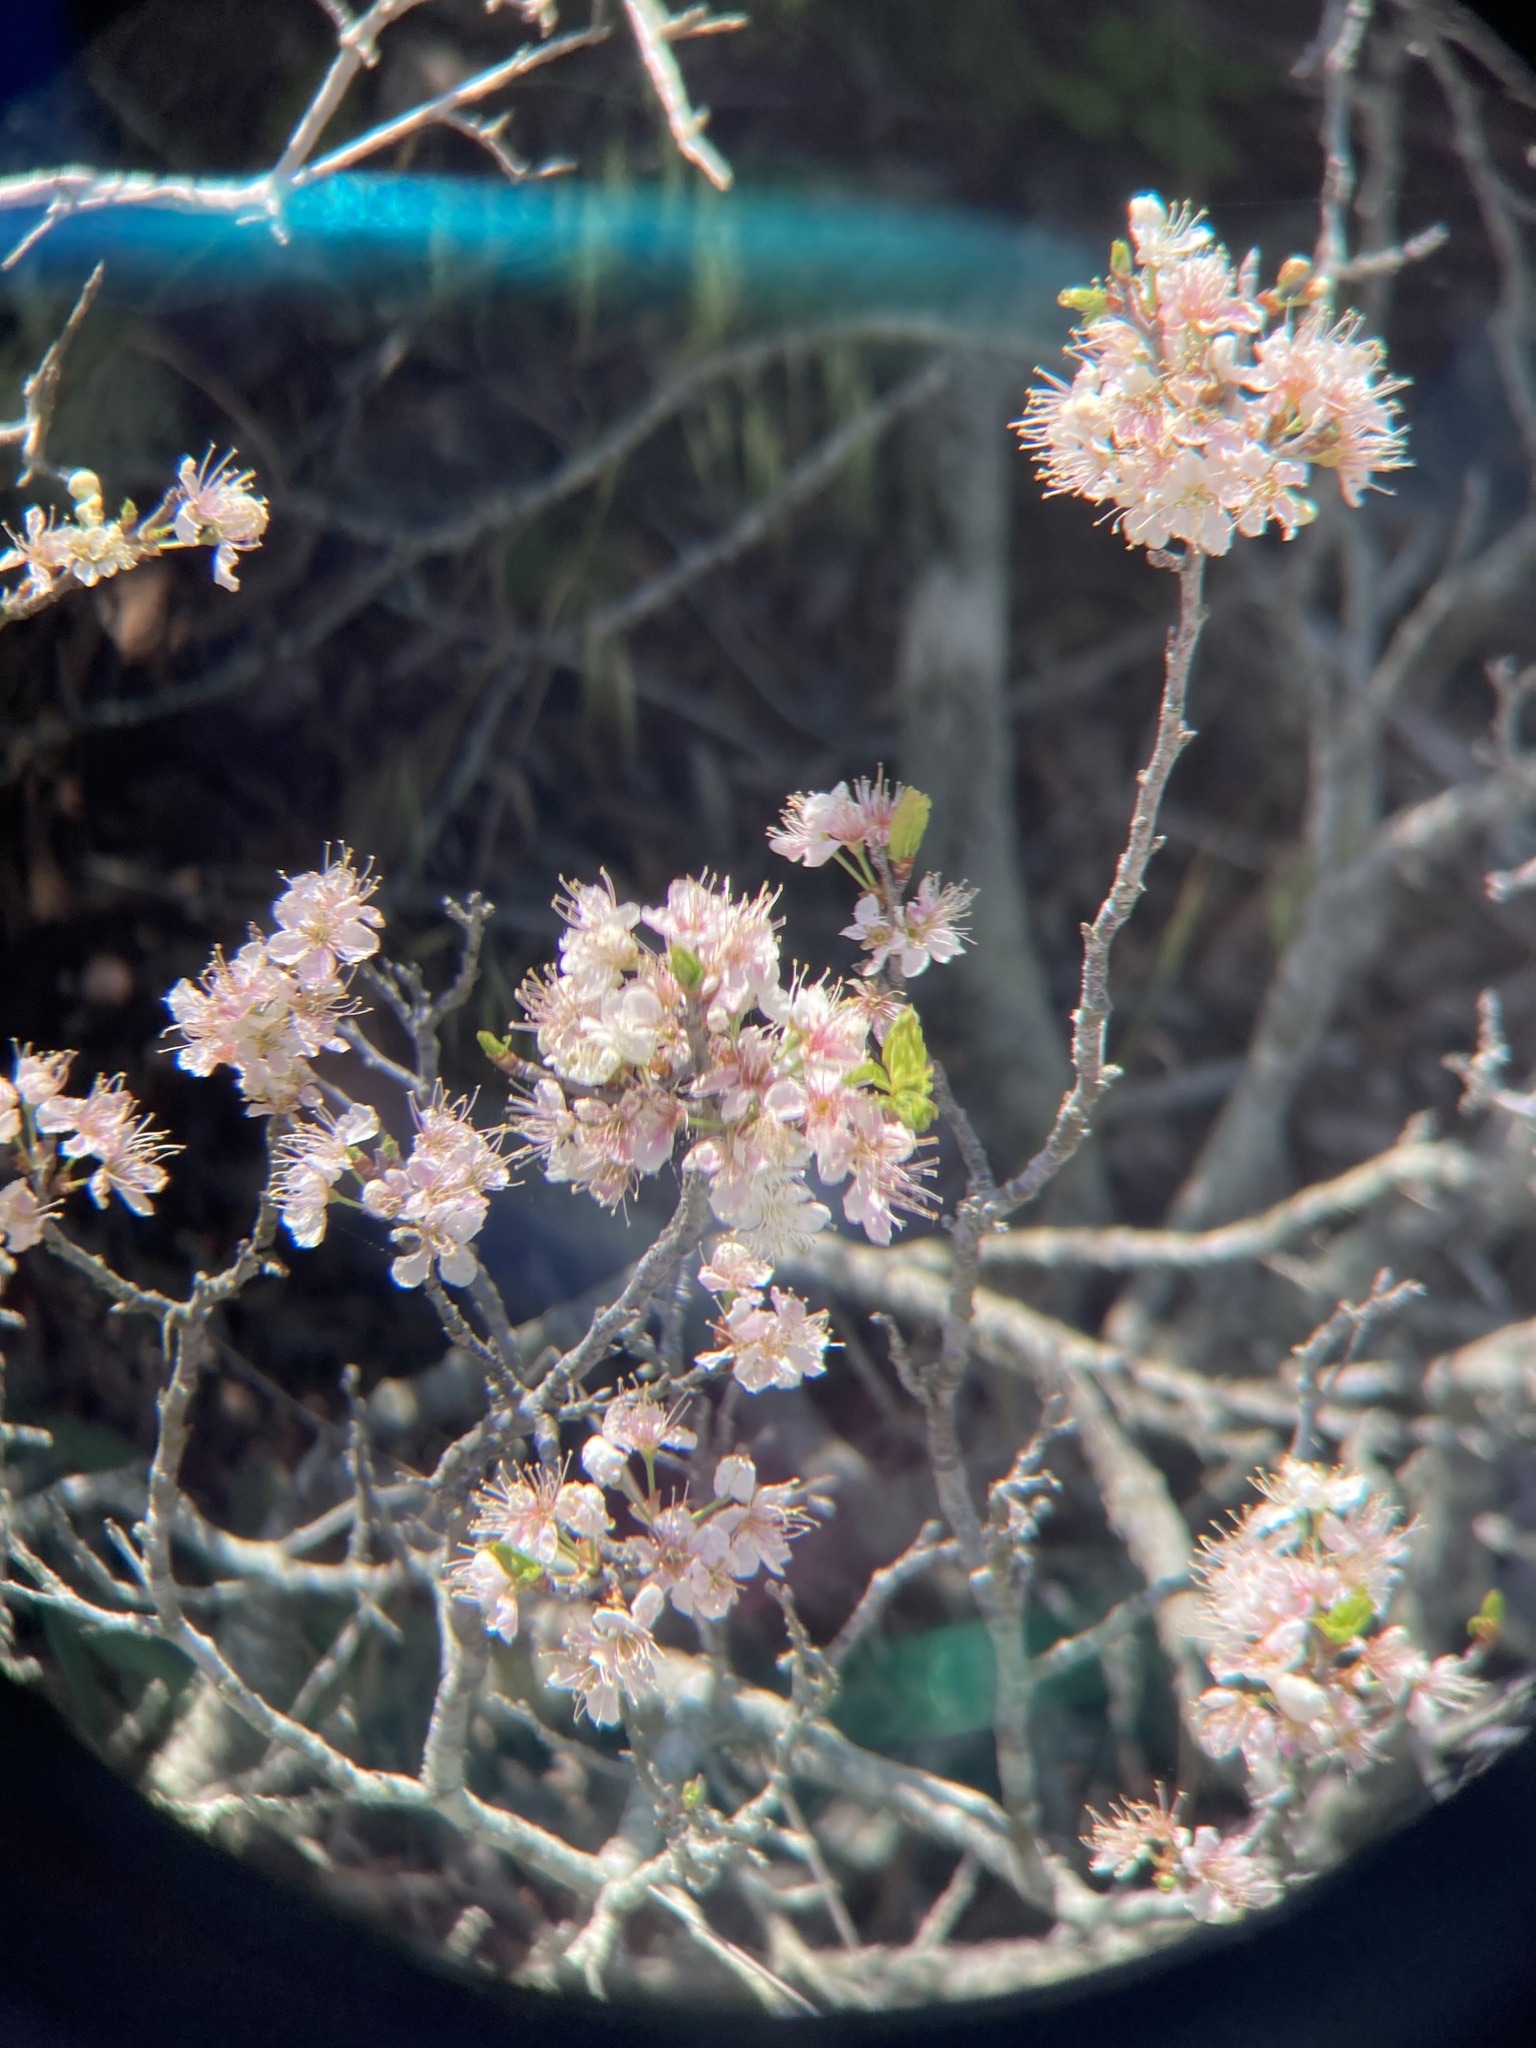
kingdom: Plantae
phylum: Tracheophyta
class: Magnoliopsida
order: Rosales
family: Rosaceae
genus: Prunus
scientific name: Prunus maritima
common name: Beach plum
